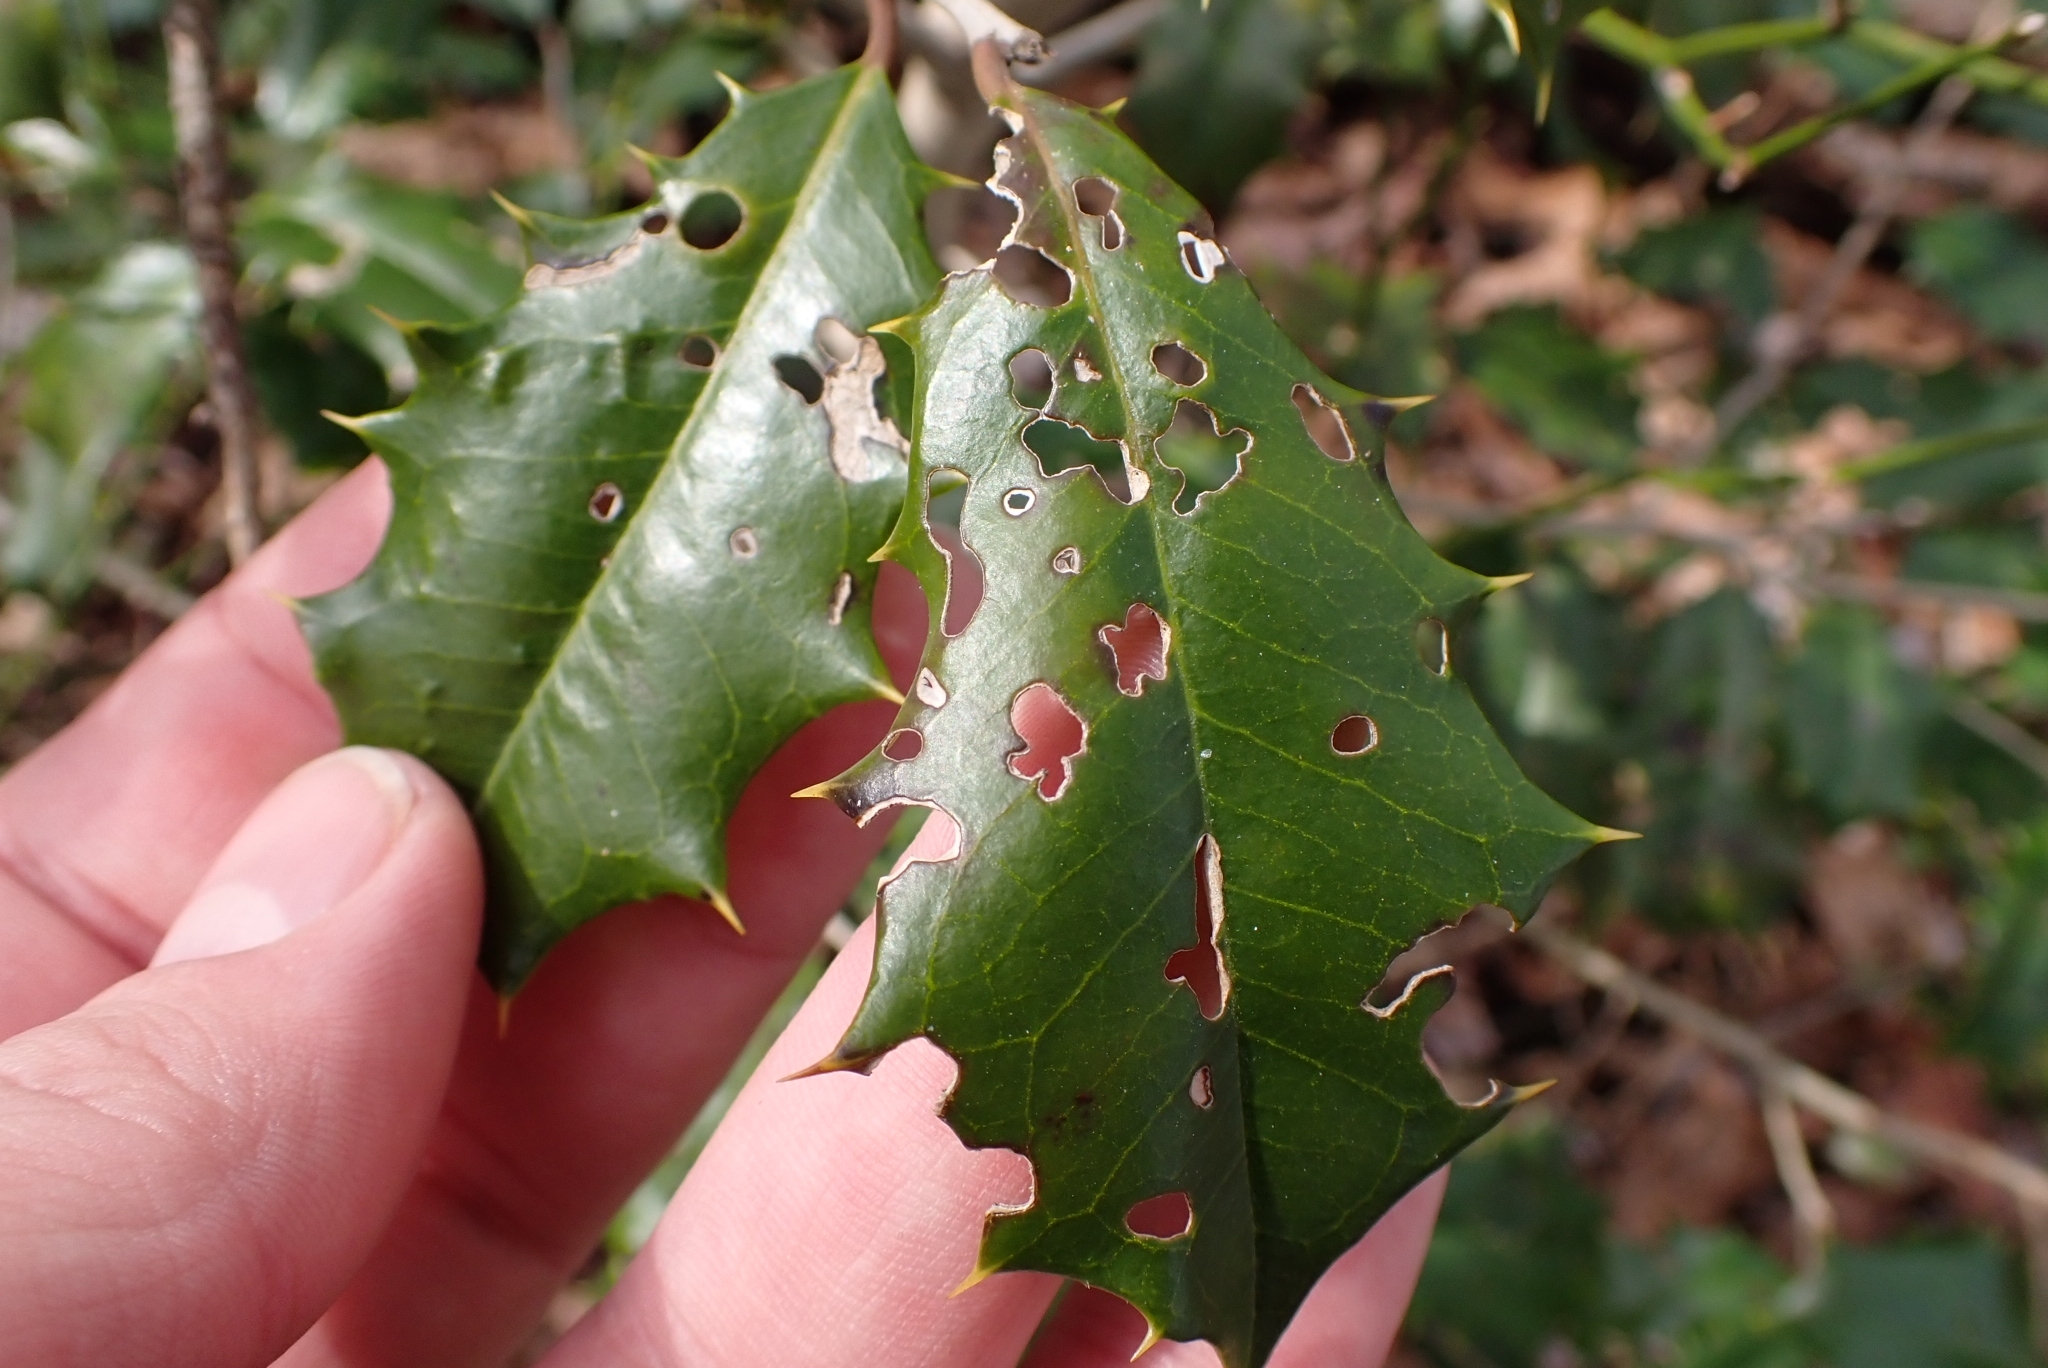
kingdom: Plantae
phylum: Tracheophyta
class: Magnoliopsida
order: Aquifoliales
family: Aquifoliaceae
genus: Ilex
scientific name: Ilex opaca
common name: American holly
